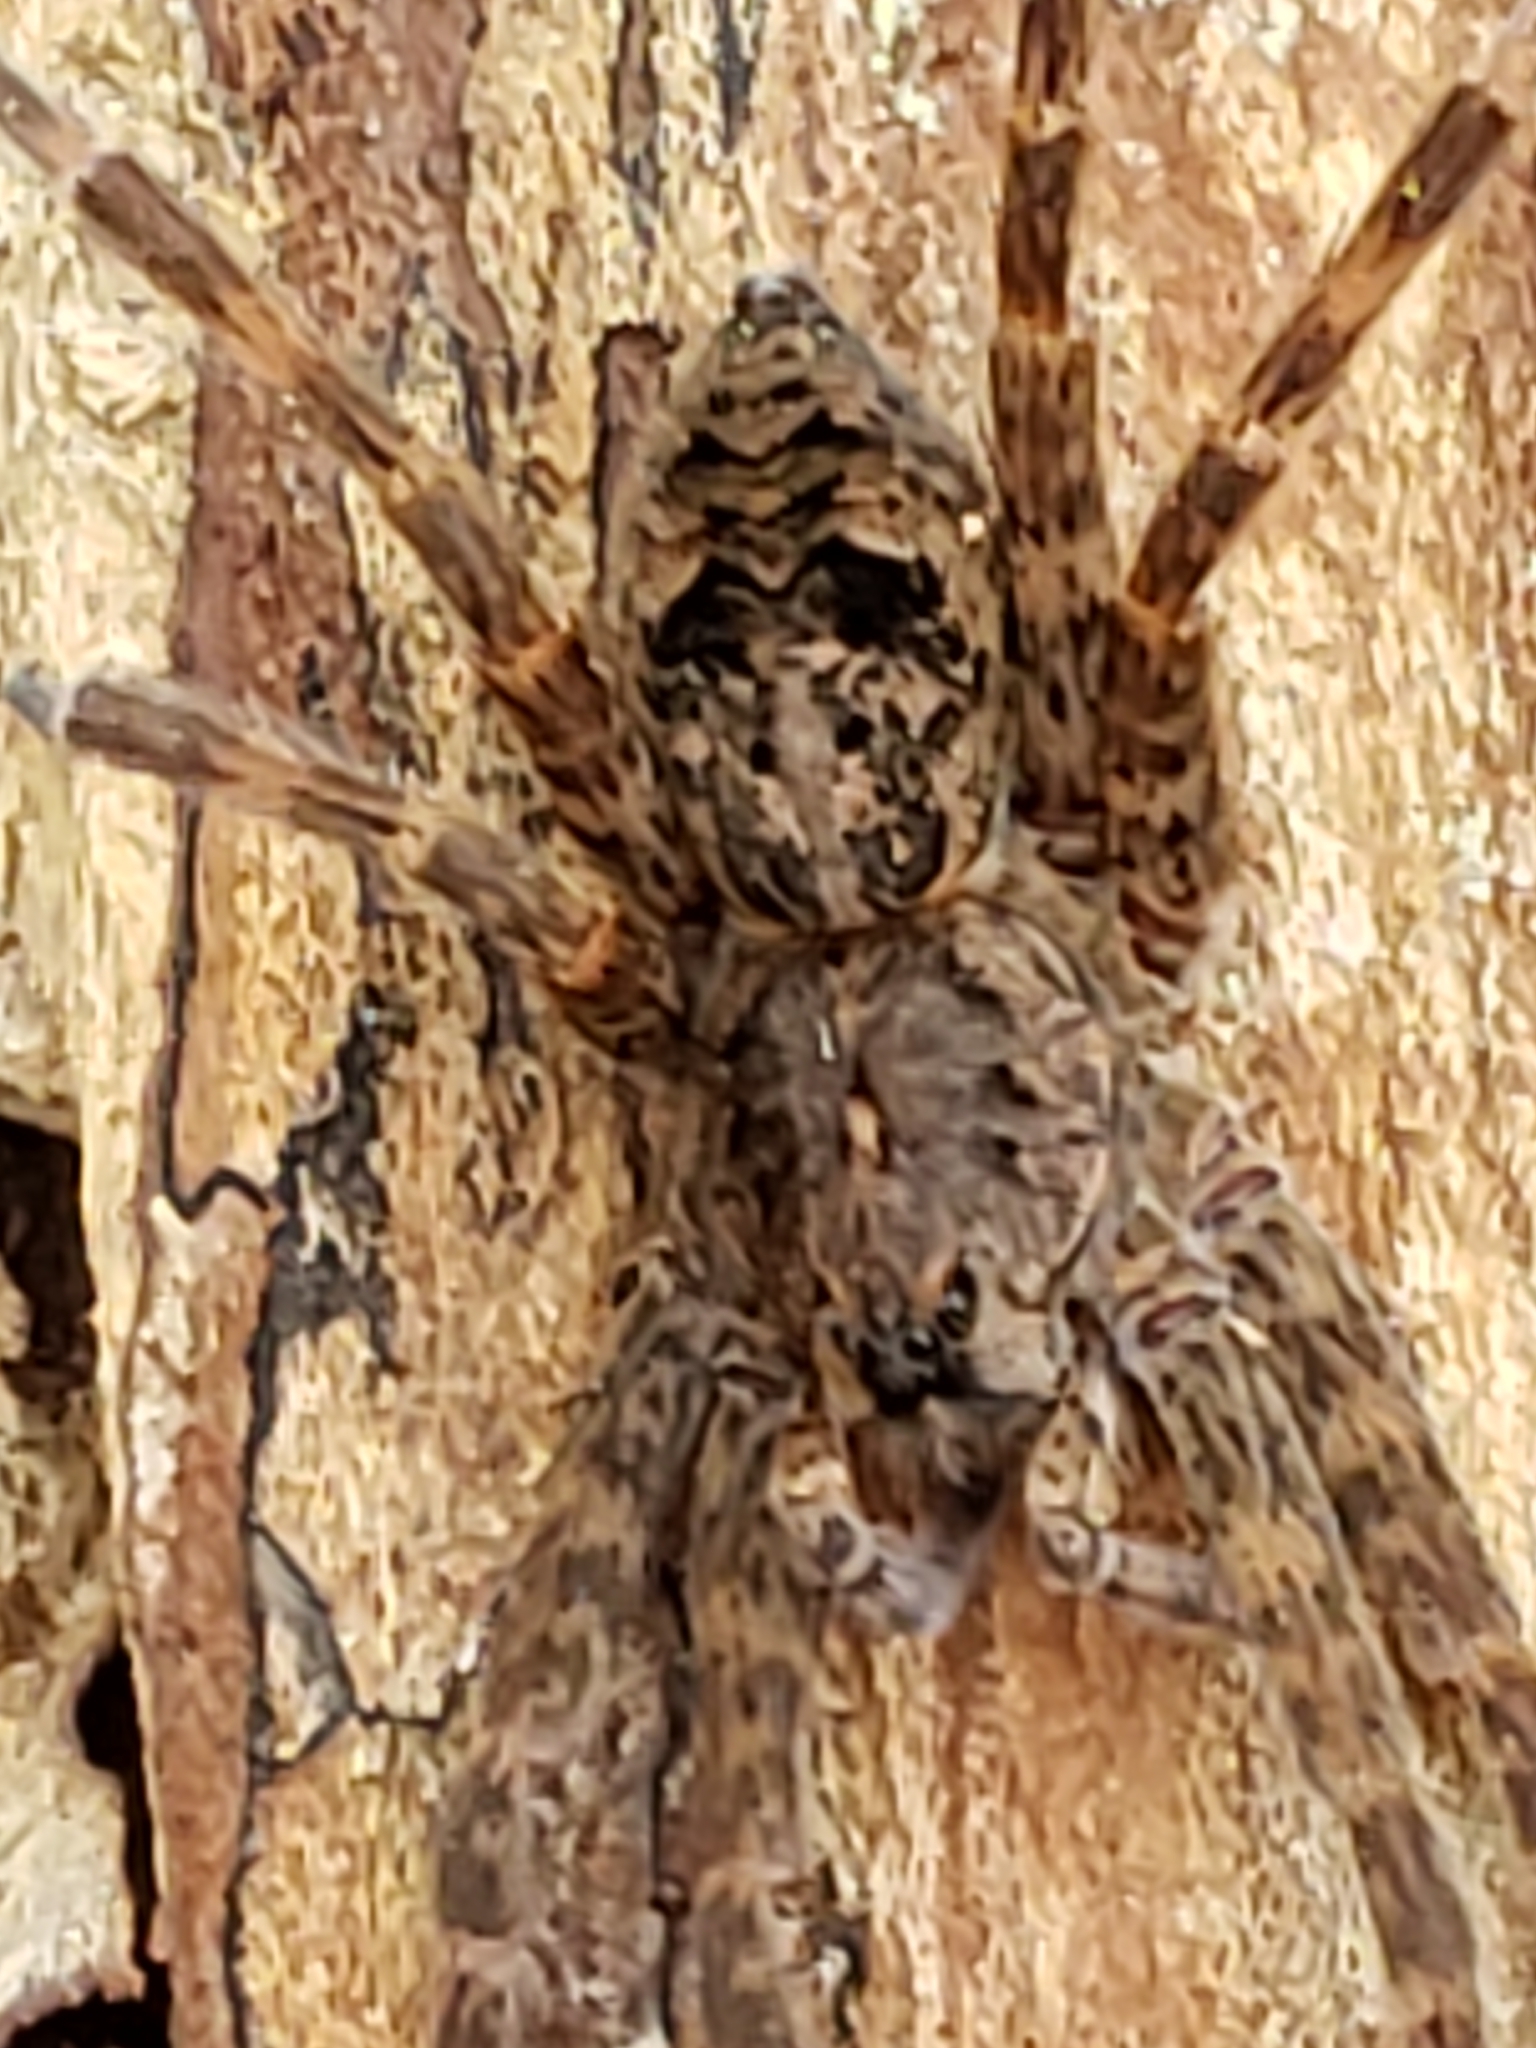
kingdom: Animalia
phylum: Arthropoda
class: Arachnida
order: Araneae
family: Pisauridae
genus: Dolomedes
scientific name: Dolomedes tenebrosus
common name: Dark fishing spider
